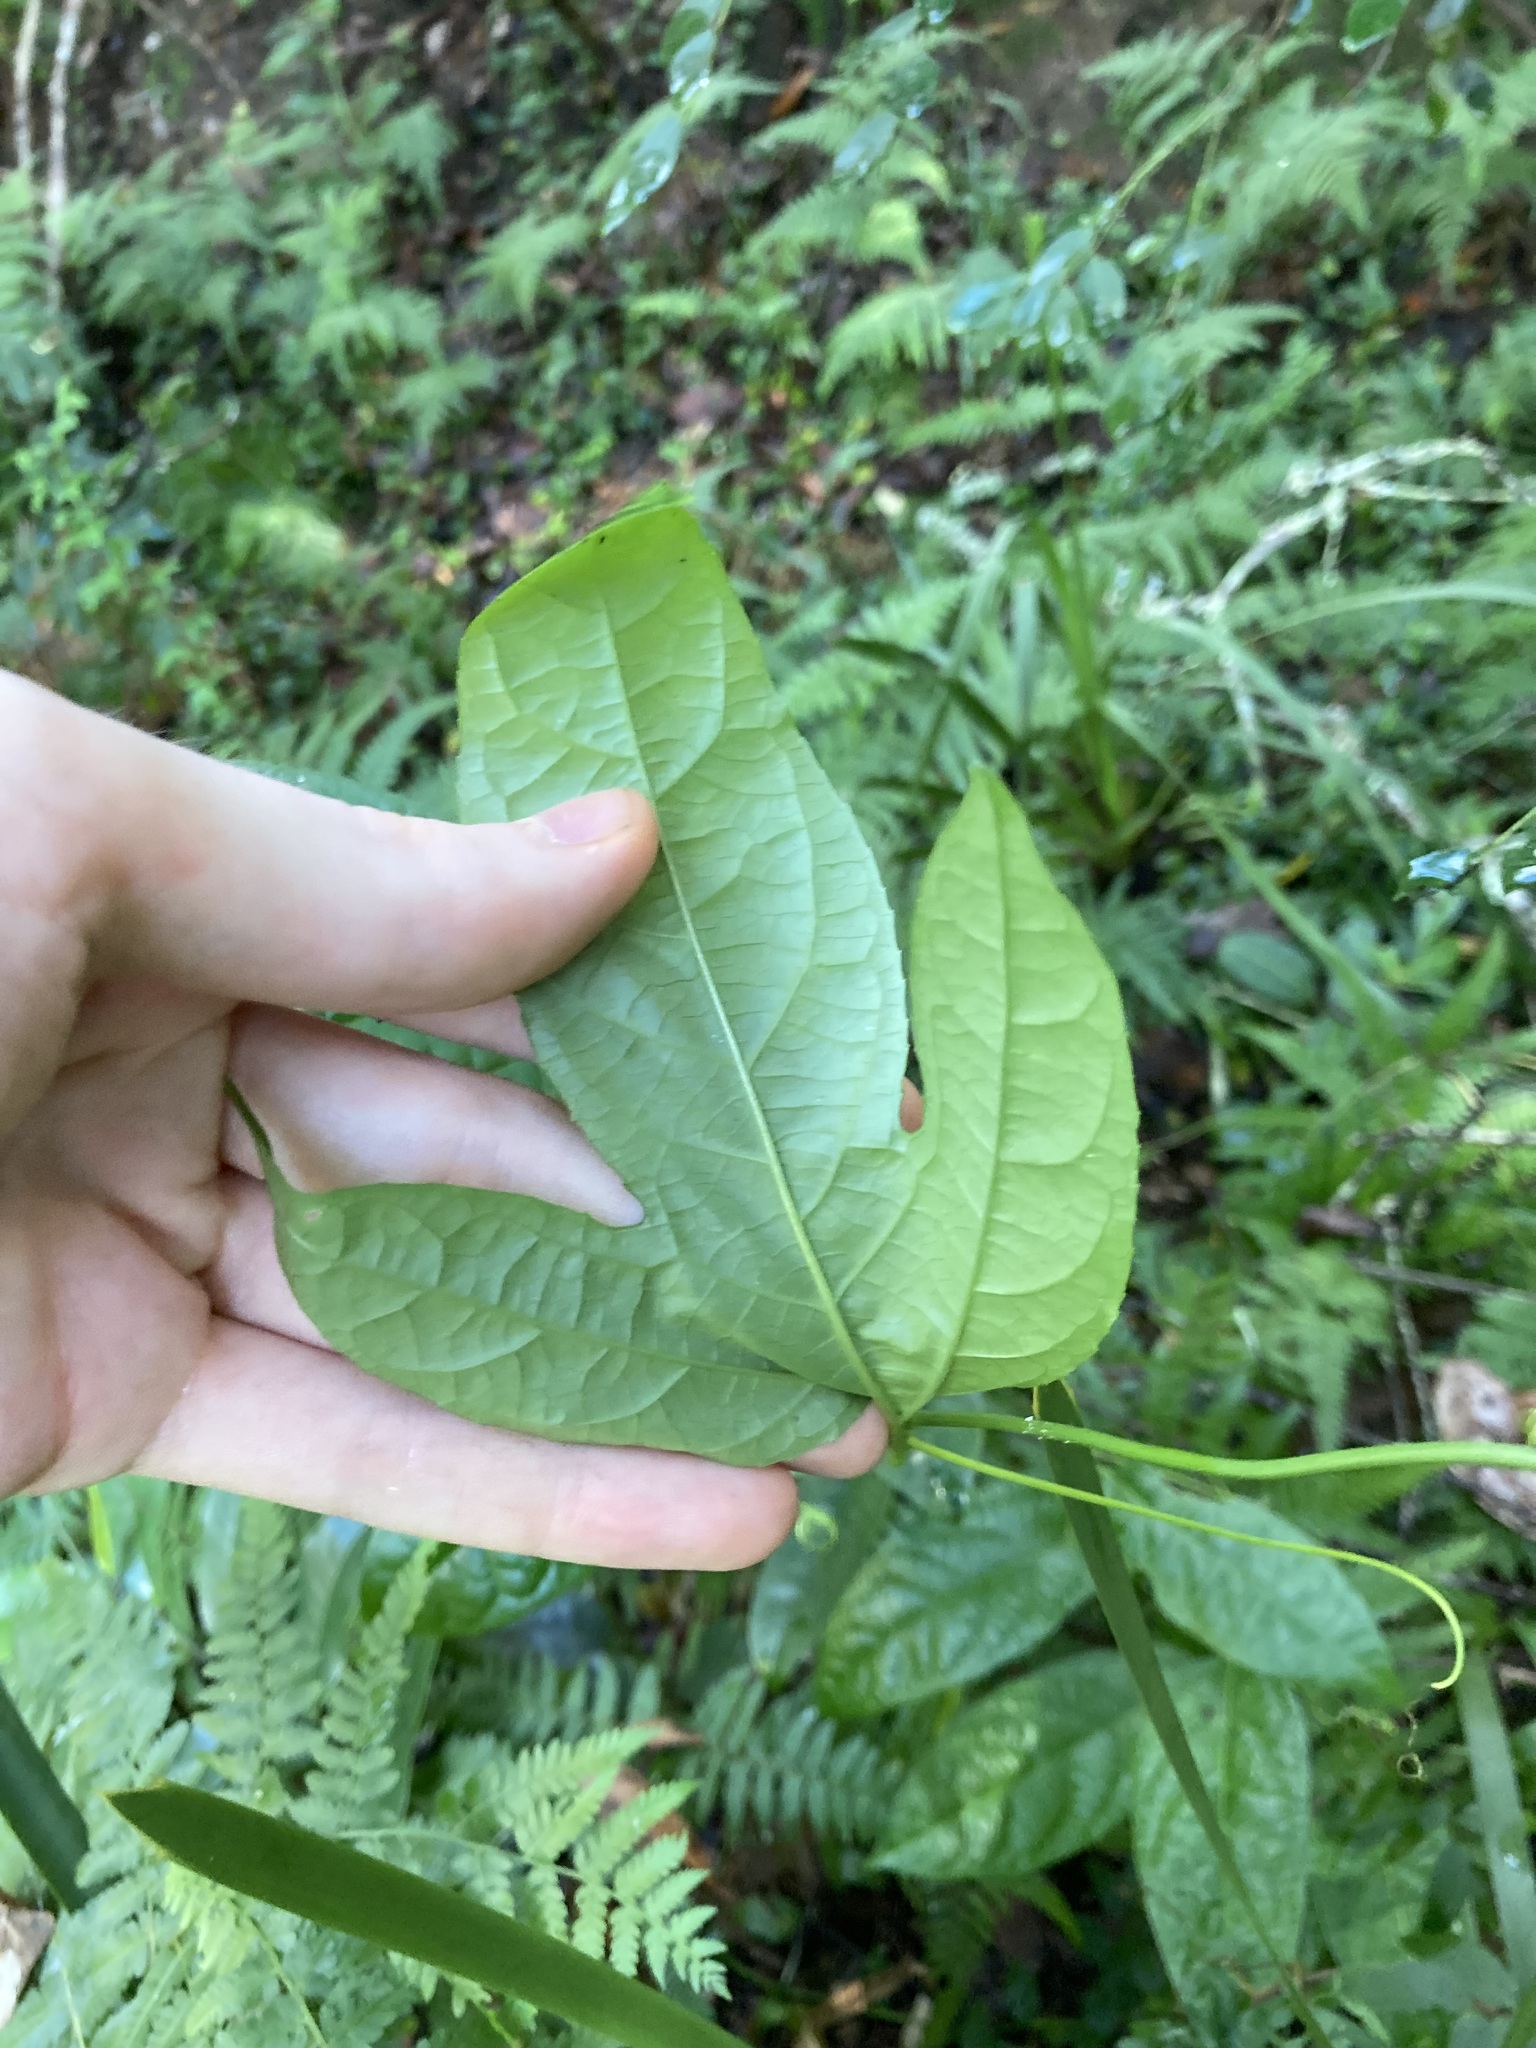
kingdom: Plantae
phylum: Tracheophyta
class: Magnoliopsida
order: Malpighiales
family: Passifloraceae
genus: Passiflora
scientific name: Passiflora edulis
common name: Purple granadilla
